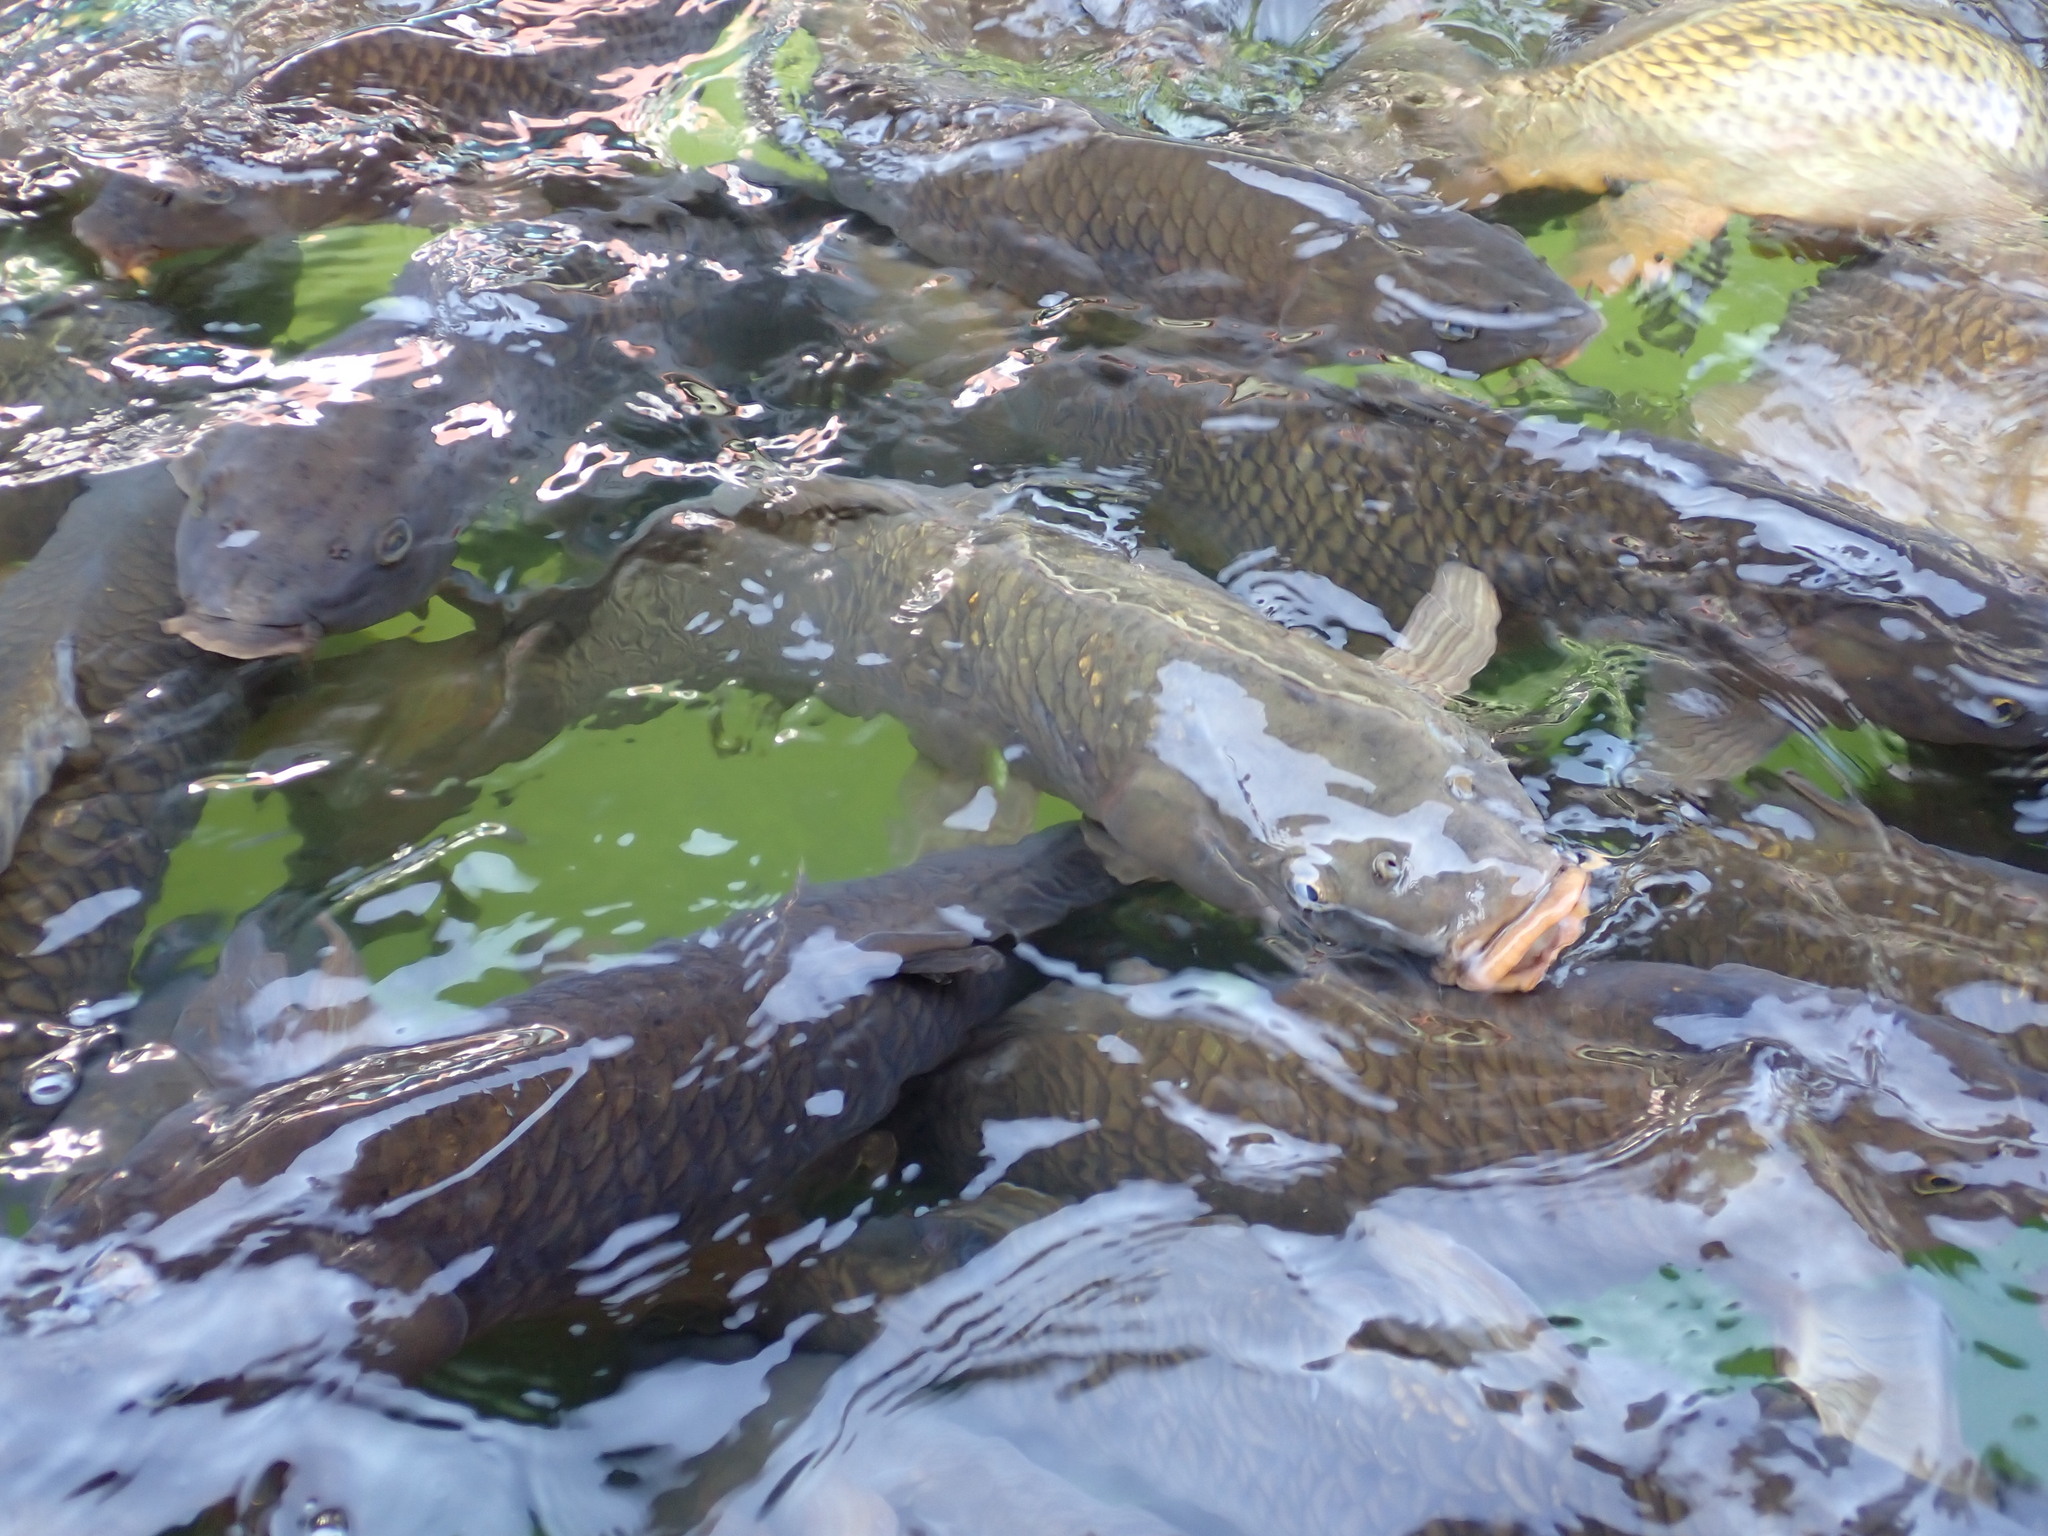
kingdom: Animalia
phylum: Chordata
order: Cypriniformes
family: Cyprinidae
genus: Cyprinus
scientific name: Cyprinus carpio
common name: Common carp
